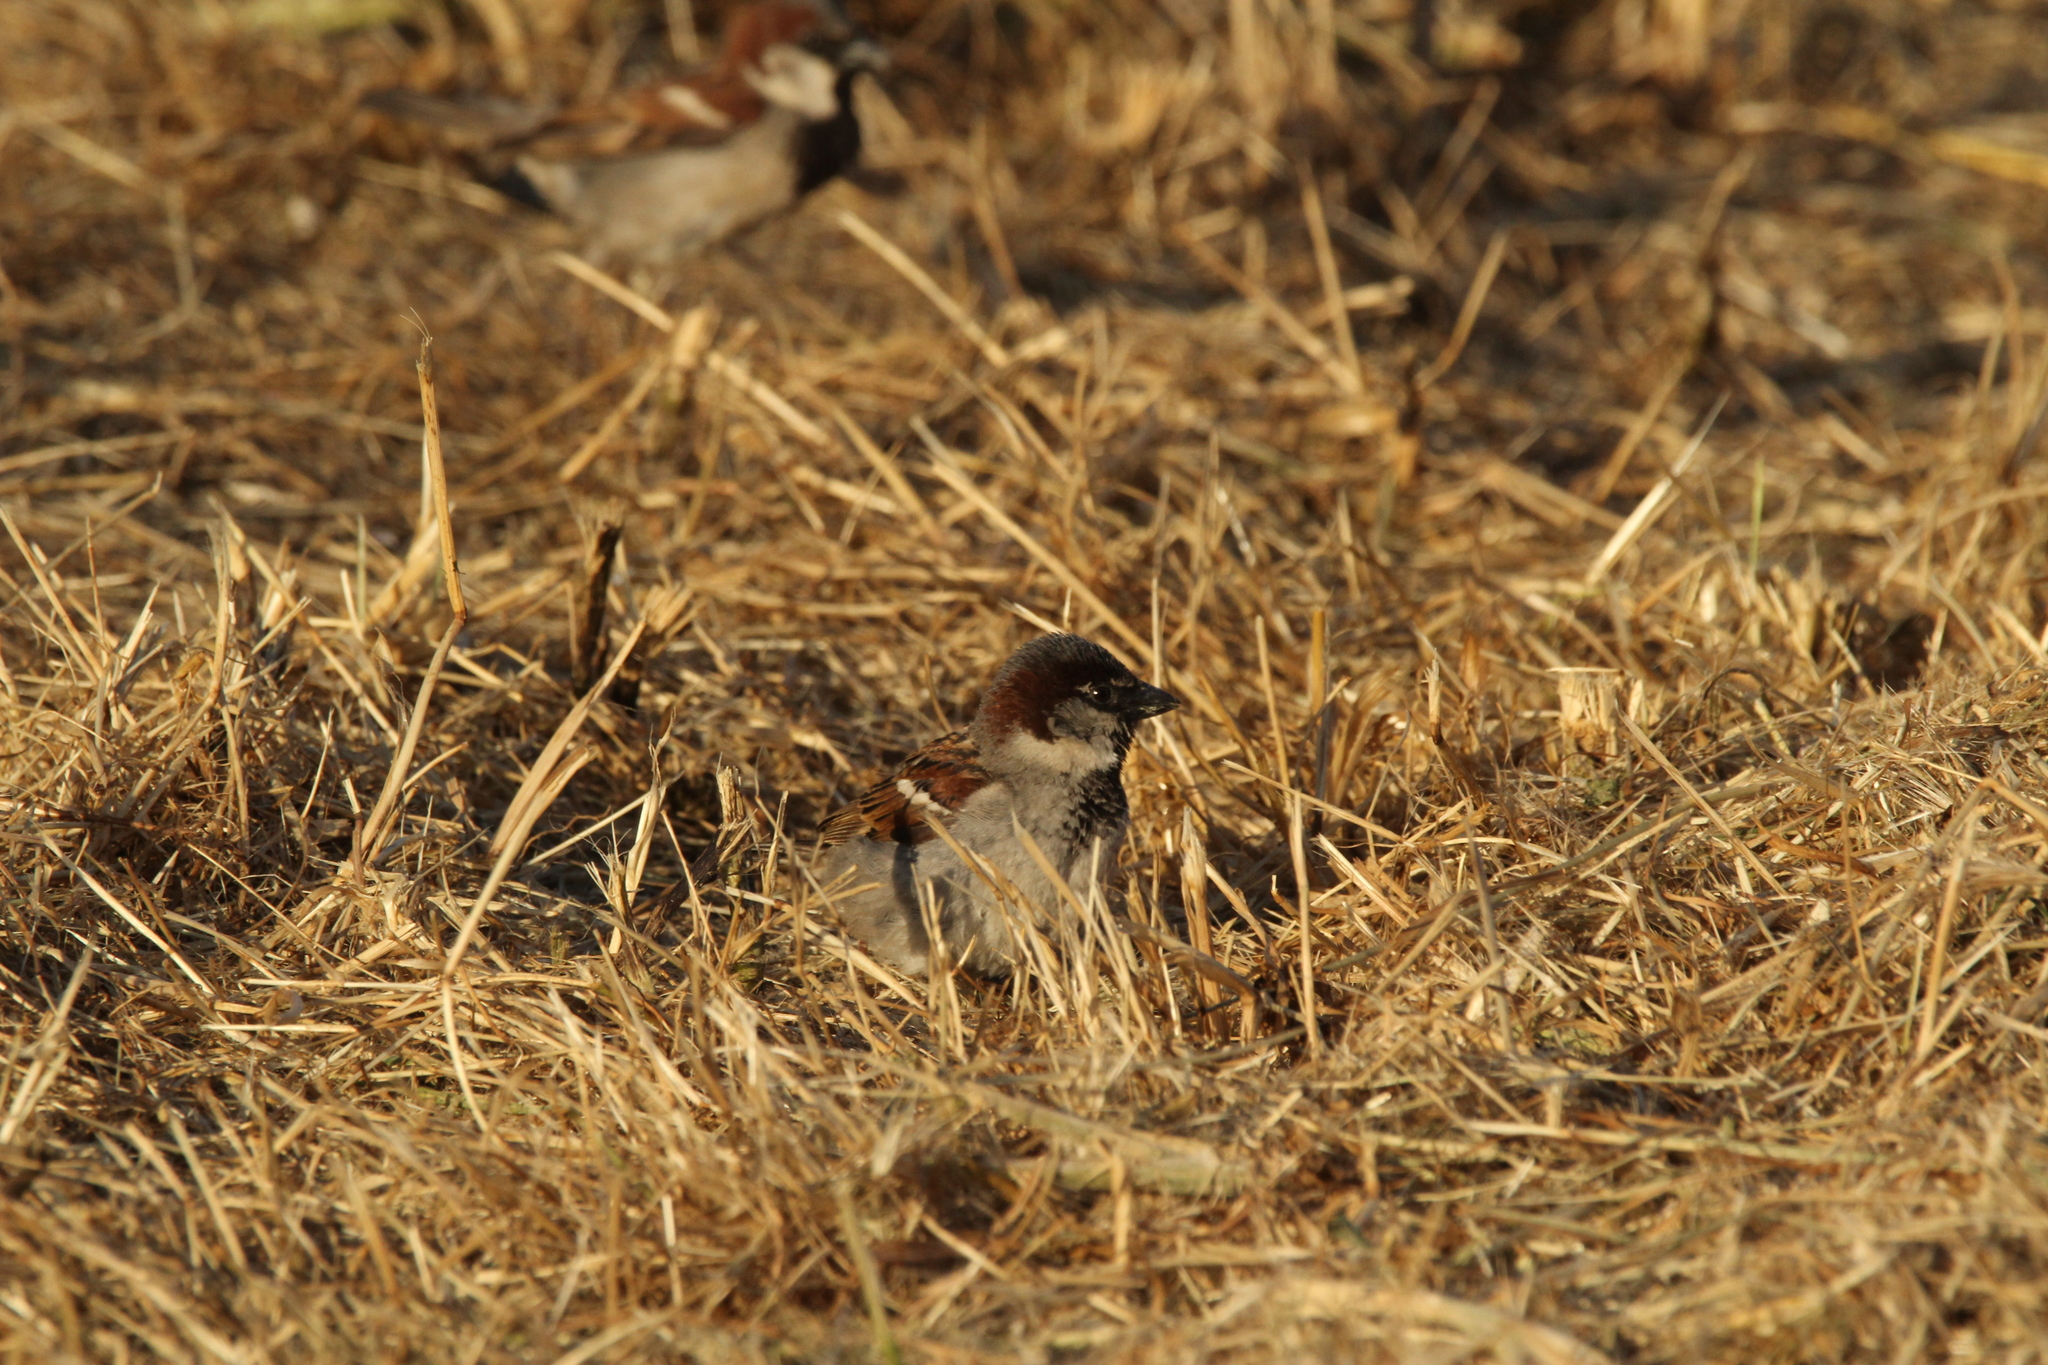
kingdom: Animalia
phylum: Chordata
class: Aves
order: Passeriformes
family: Passeridae
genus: Passer
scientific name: Passer domesticus
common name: House sparrow
